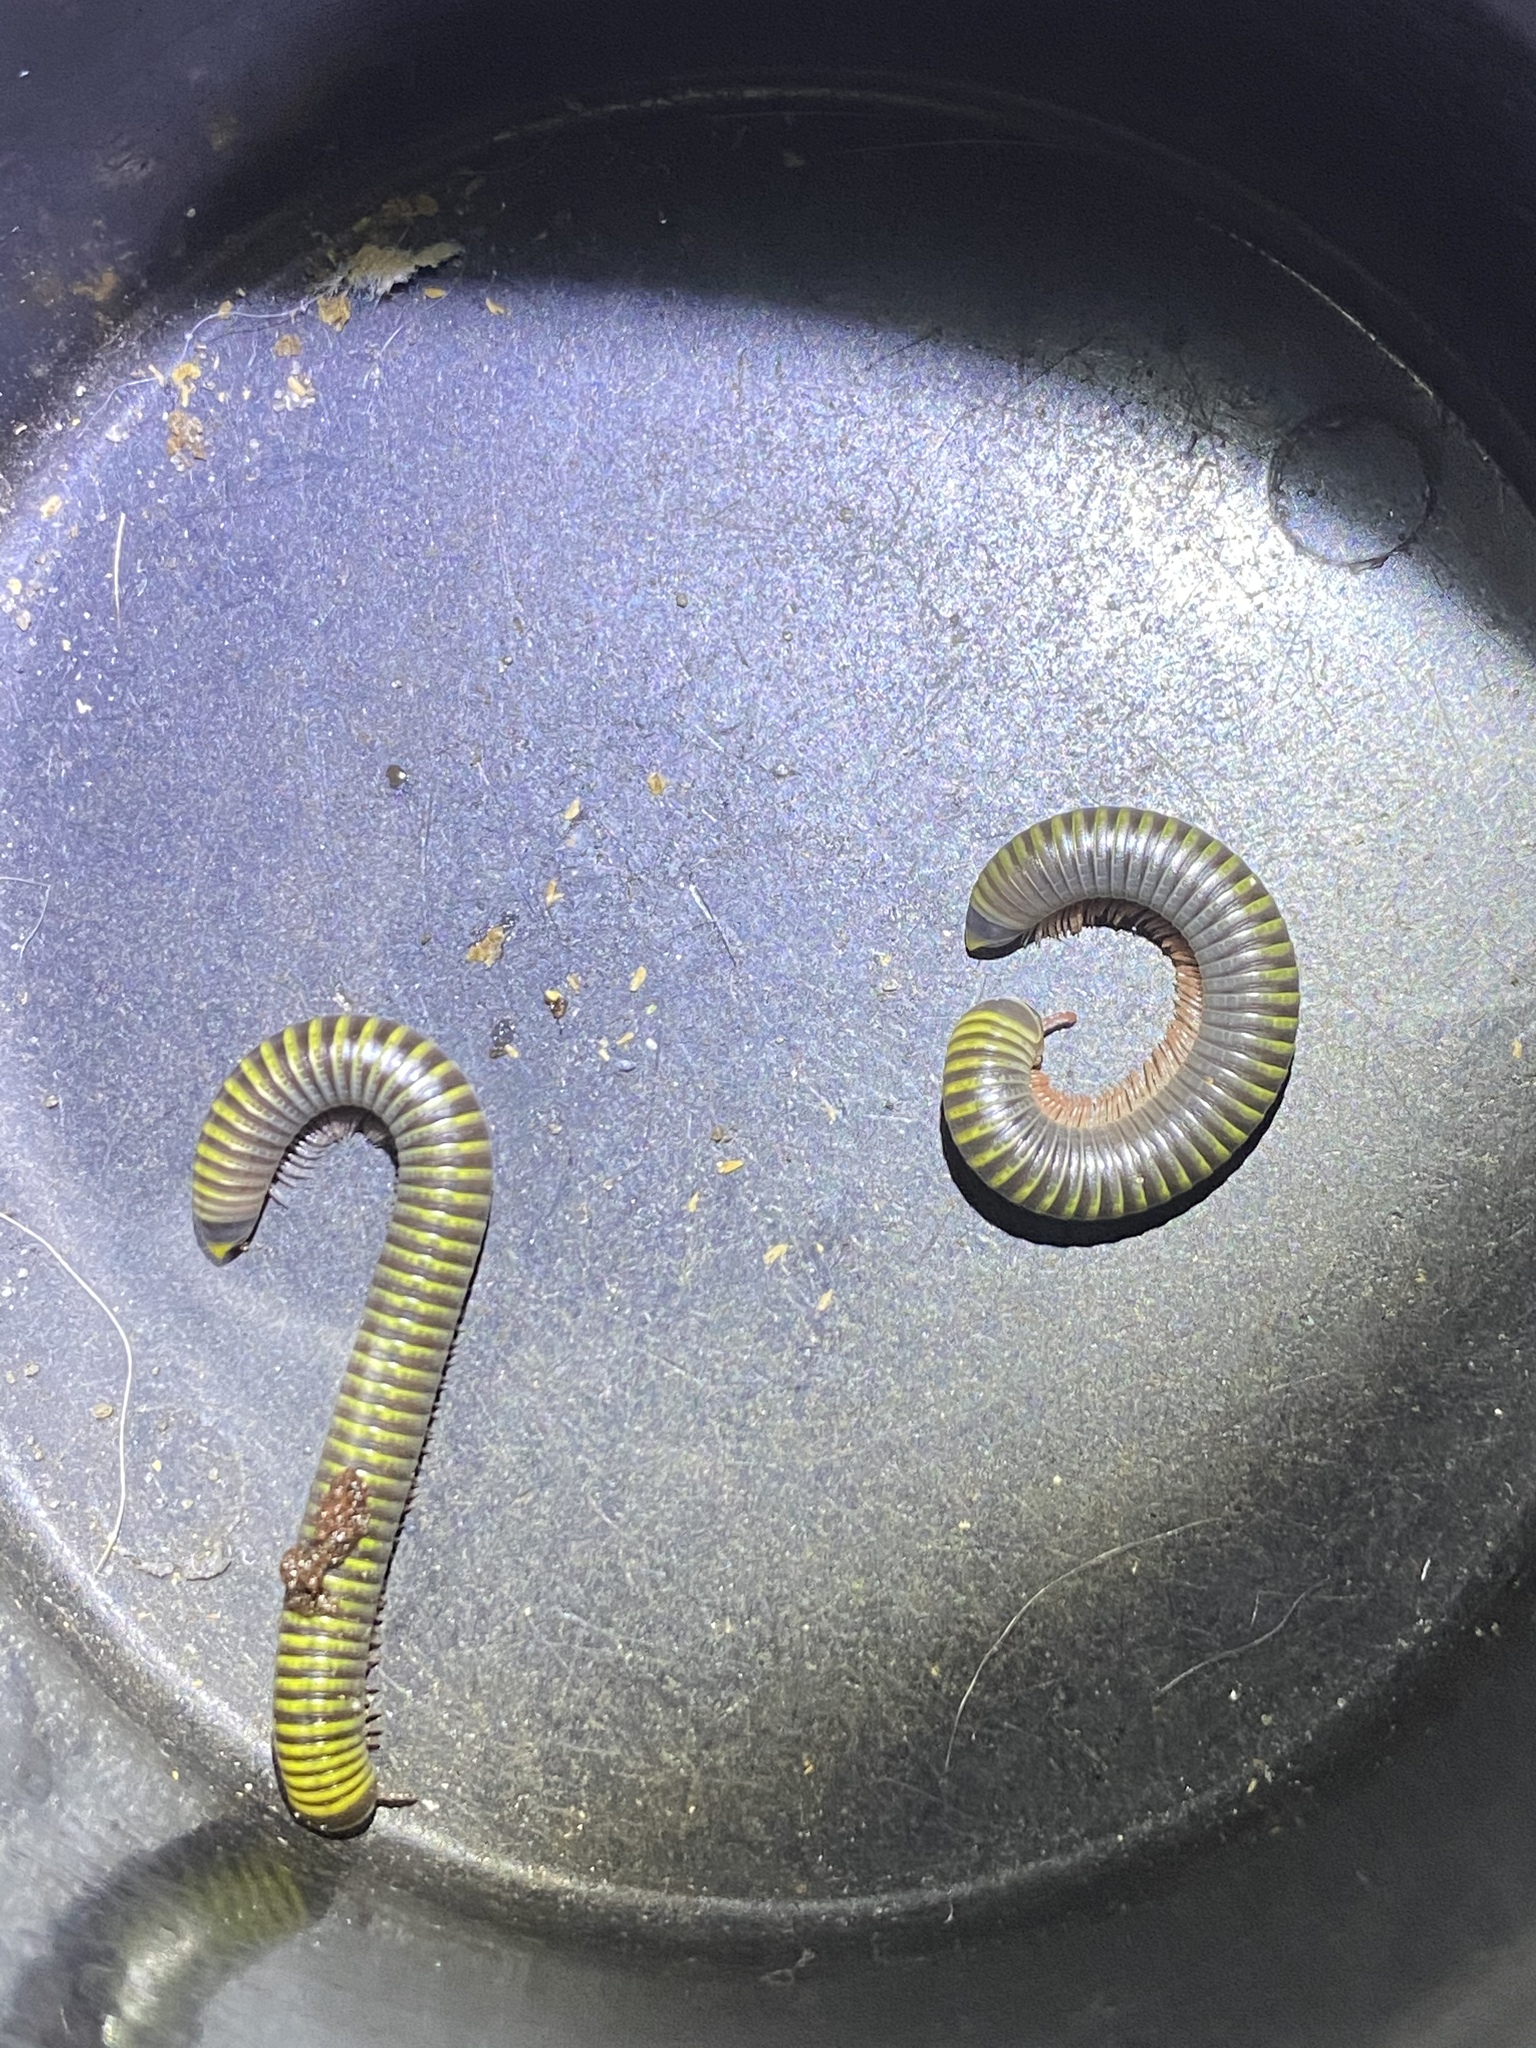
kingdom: Animalia
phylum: Arthropoda
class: Diplopoda
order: Spirobolida
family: Rhinocricidae
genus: Anadenobolus
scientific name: Anadenobolus monilicornis
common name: Caribbean millipede
